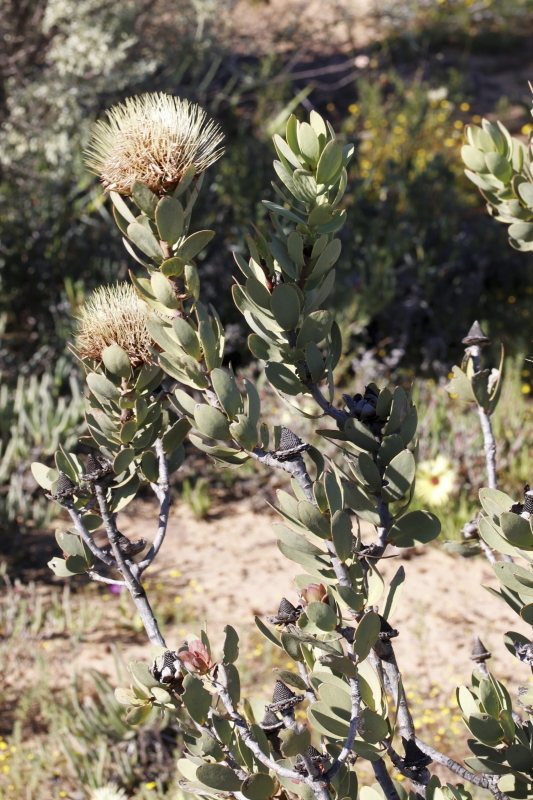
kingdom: Plantae
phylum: Tracheophyta
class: Magnoliopsida
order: Proteales
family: Proteaceae
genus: Protea
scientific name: Protea glabra
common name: Chestnut sugarbush
